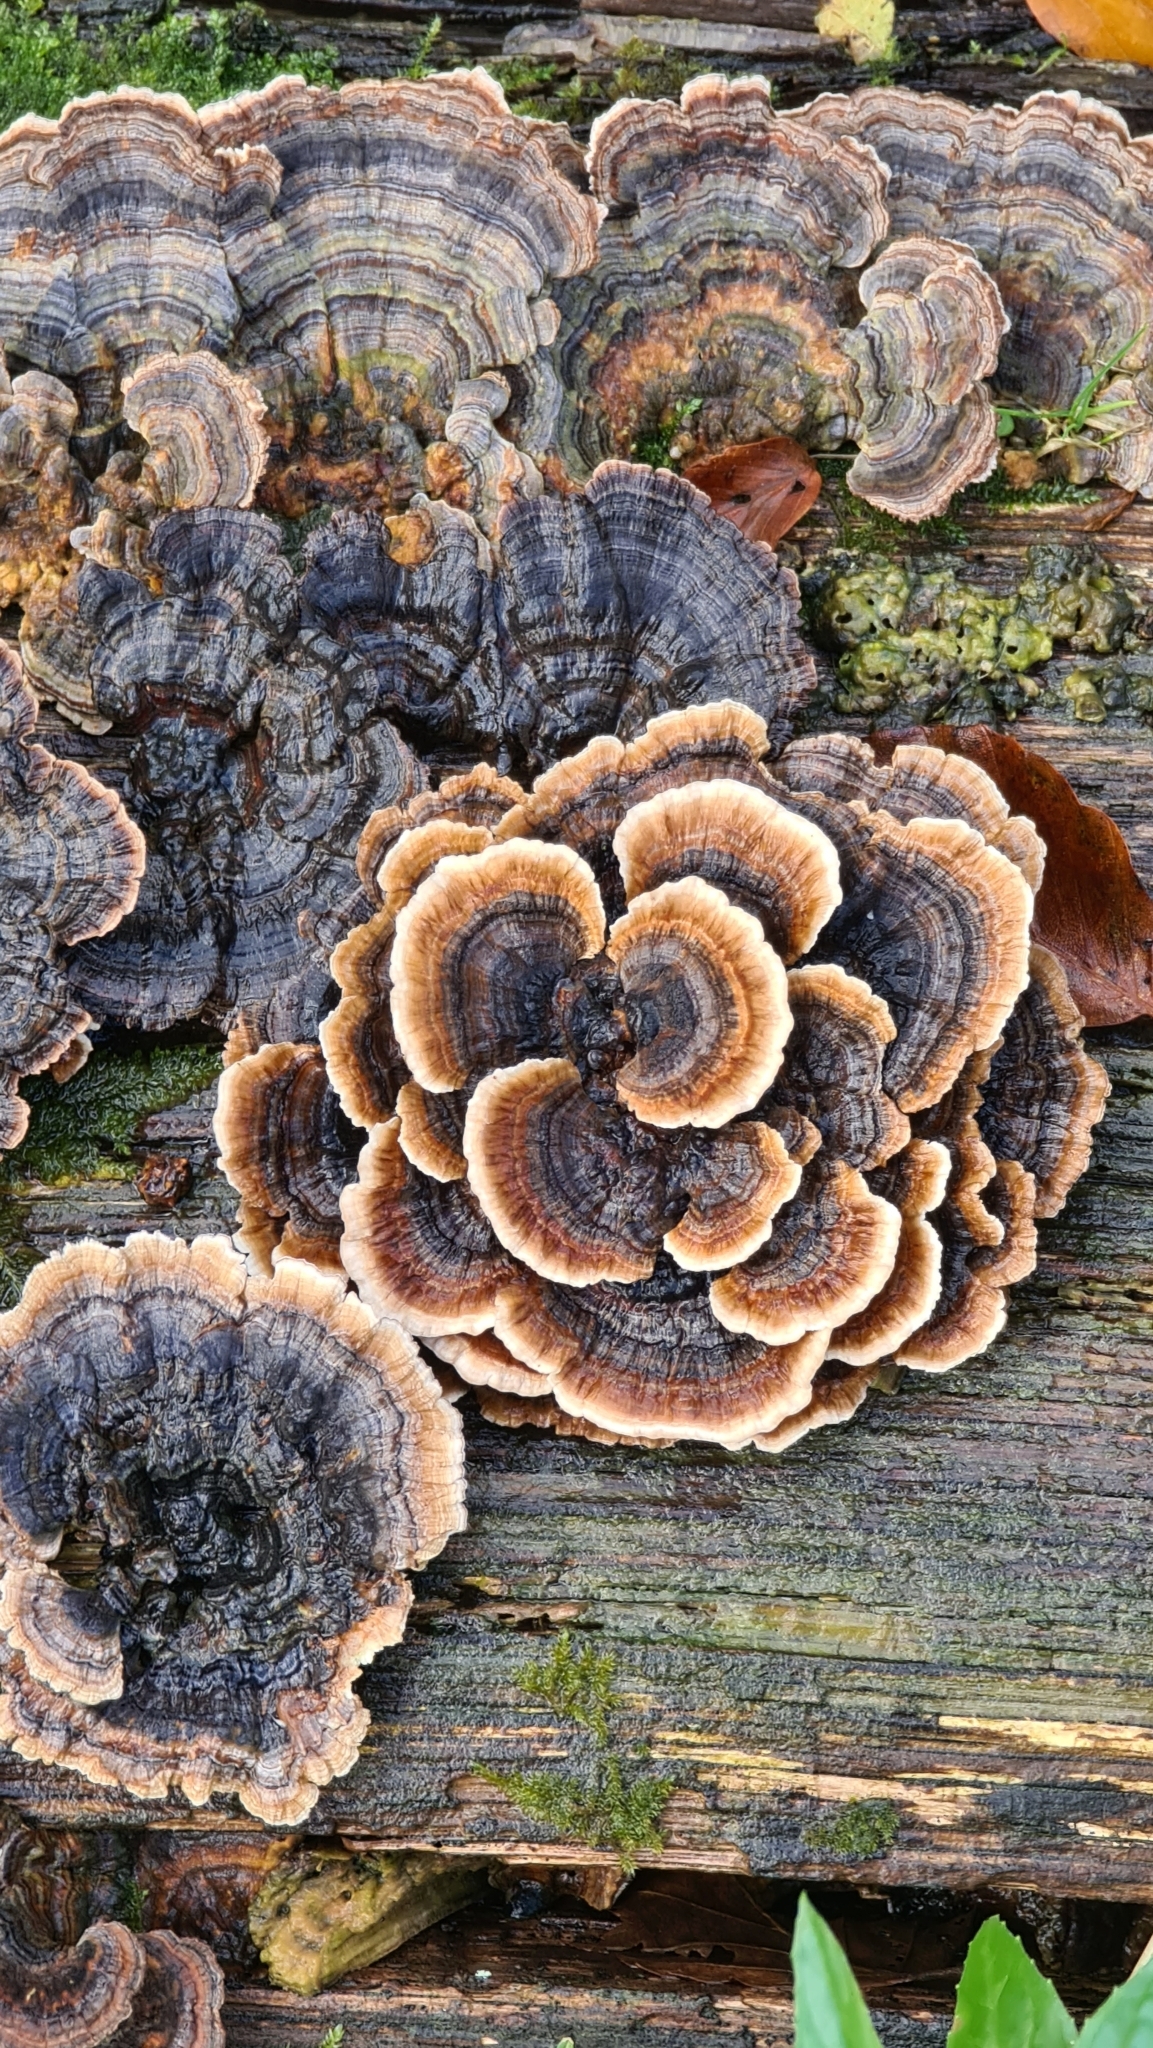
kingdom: Fungi
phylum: Basidiomycota
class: Agaricomycetes
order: Polyporales
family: Polyporaceae
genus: Trametes
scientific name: Trametes versicolor
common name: Turkeytail
